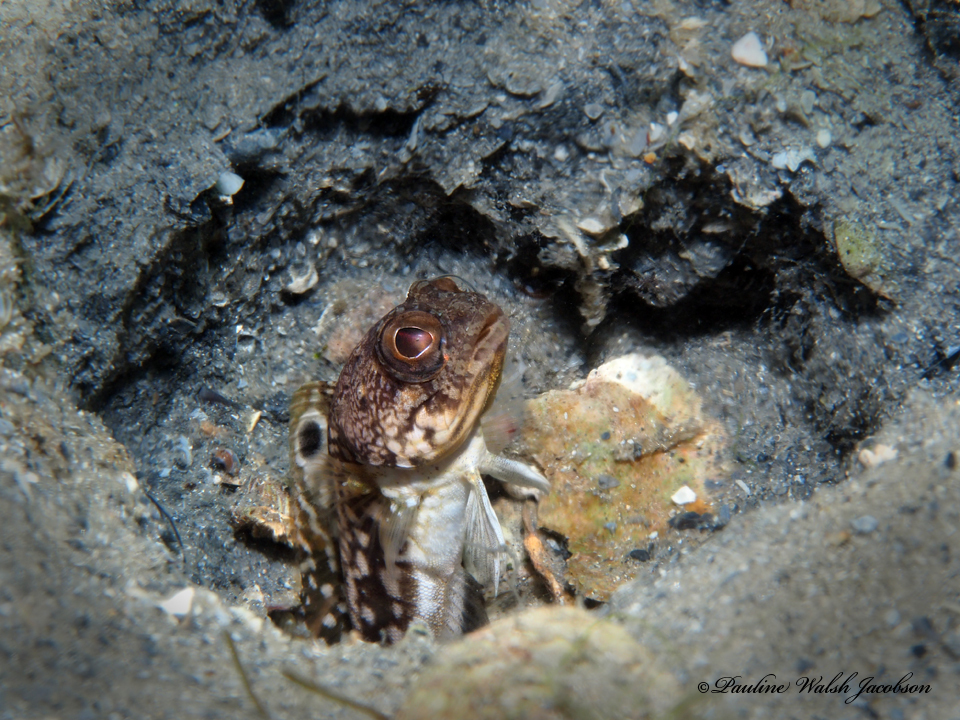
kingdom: Animalia
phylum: Chordata
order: Perciformes
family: Opistognathidae
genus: Opistognathus
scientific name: Opistognathus robinsi
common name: Spotfin jawfish
